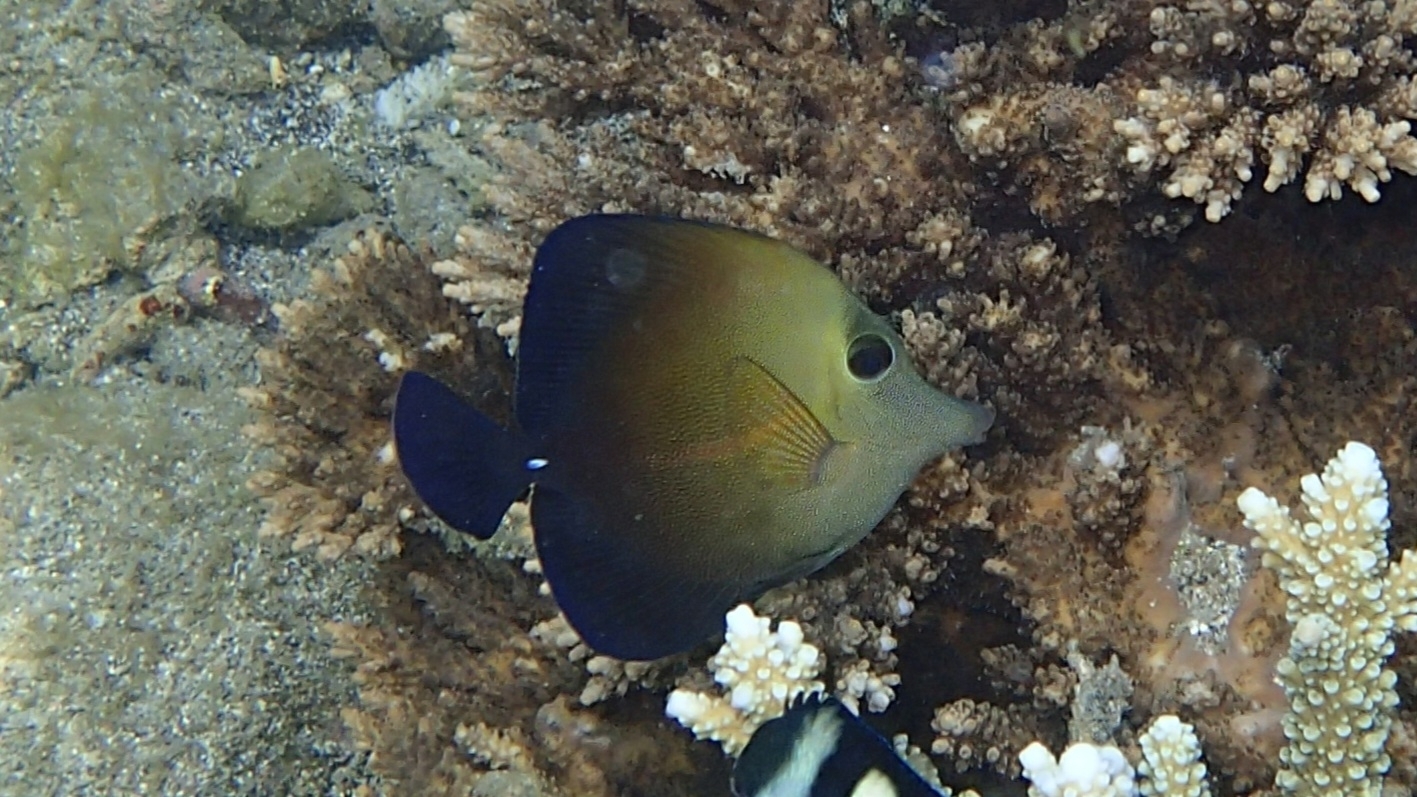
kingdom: Animalia
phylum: Chordata
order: Perciformes
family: Acanthuridae
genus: Zebrasoma
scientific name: Zebrasoma scopas
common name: Twotone tang
